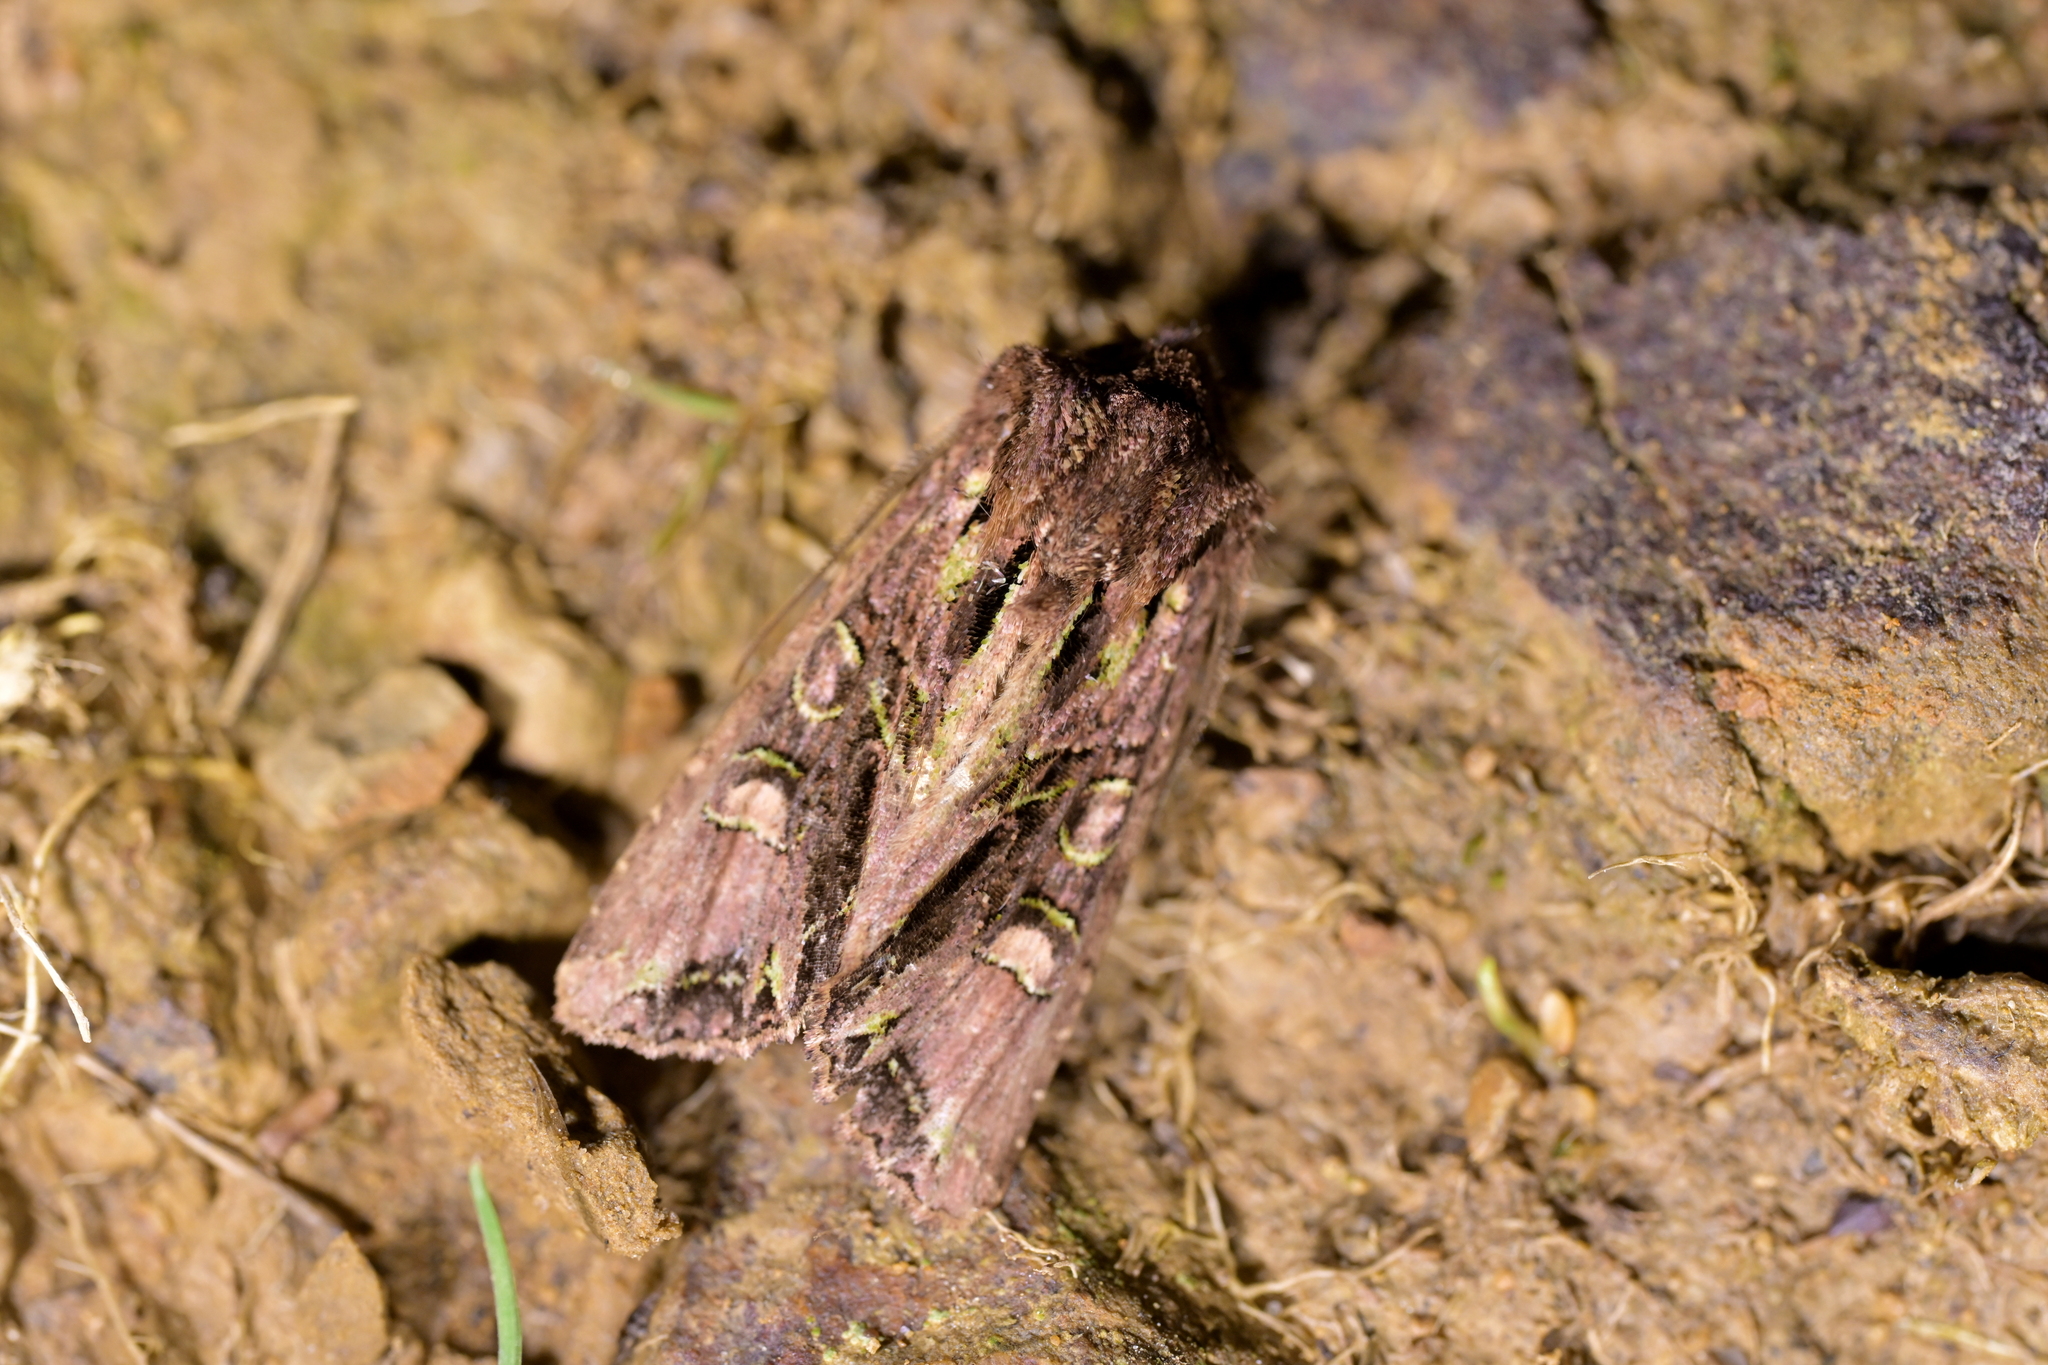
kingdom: Animalia
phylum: Arthropoda
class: Insecta
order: Lepidoptera
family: Noctuidae
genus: Ichneutica
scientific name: Ichneutica insignis
